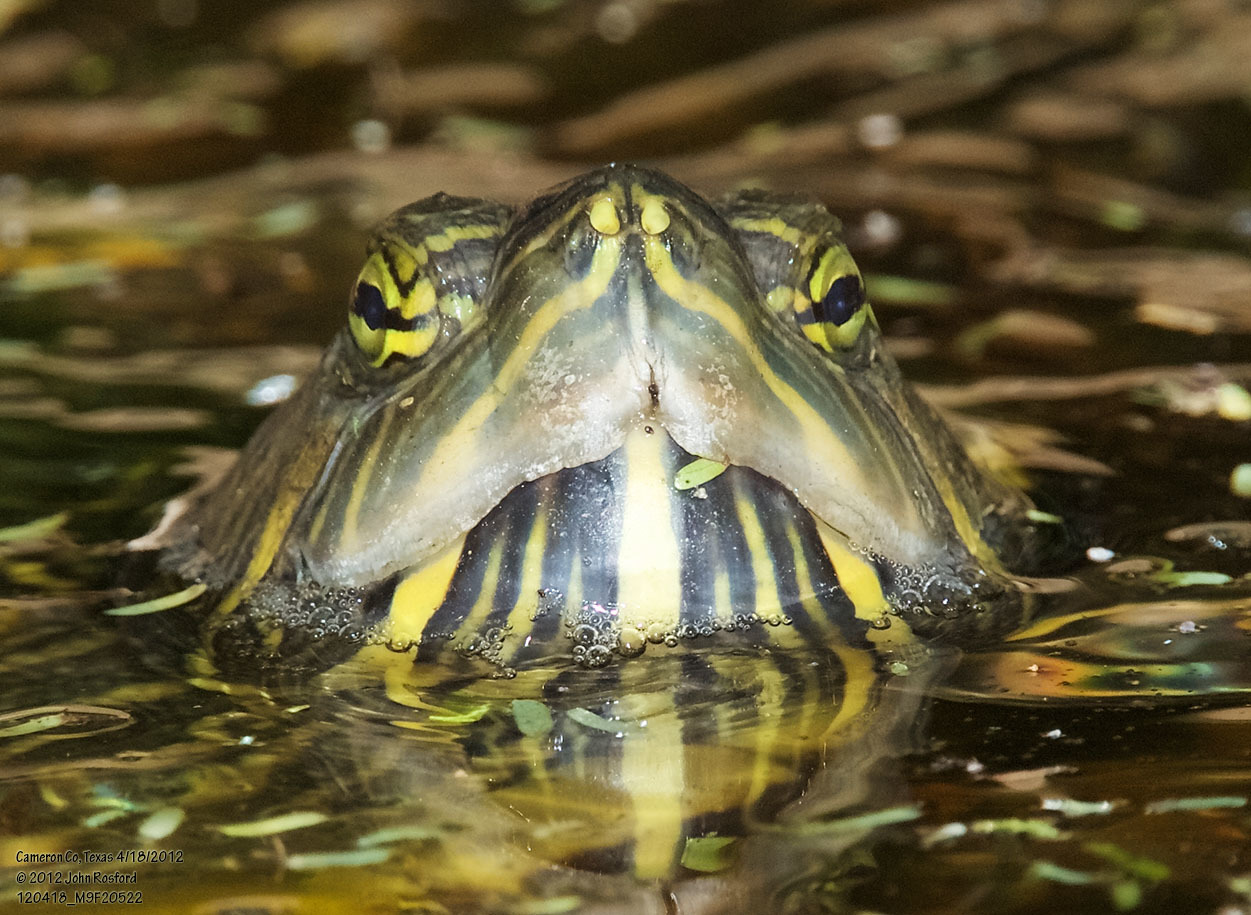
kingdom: Animalia
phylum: Chordata
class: Testudines
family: Emydidae
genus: Trachemys
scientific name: Trachemys scripta
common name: Slider
